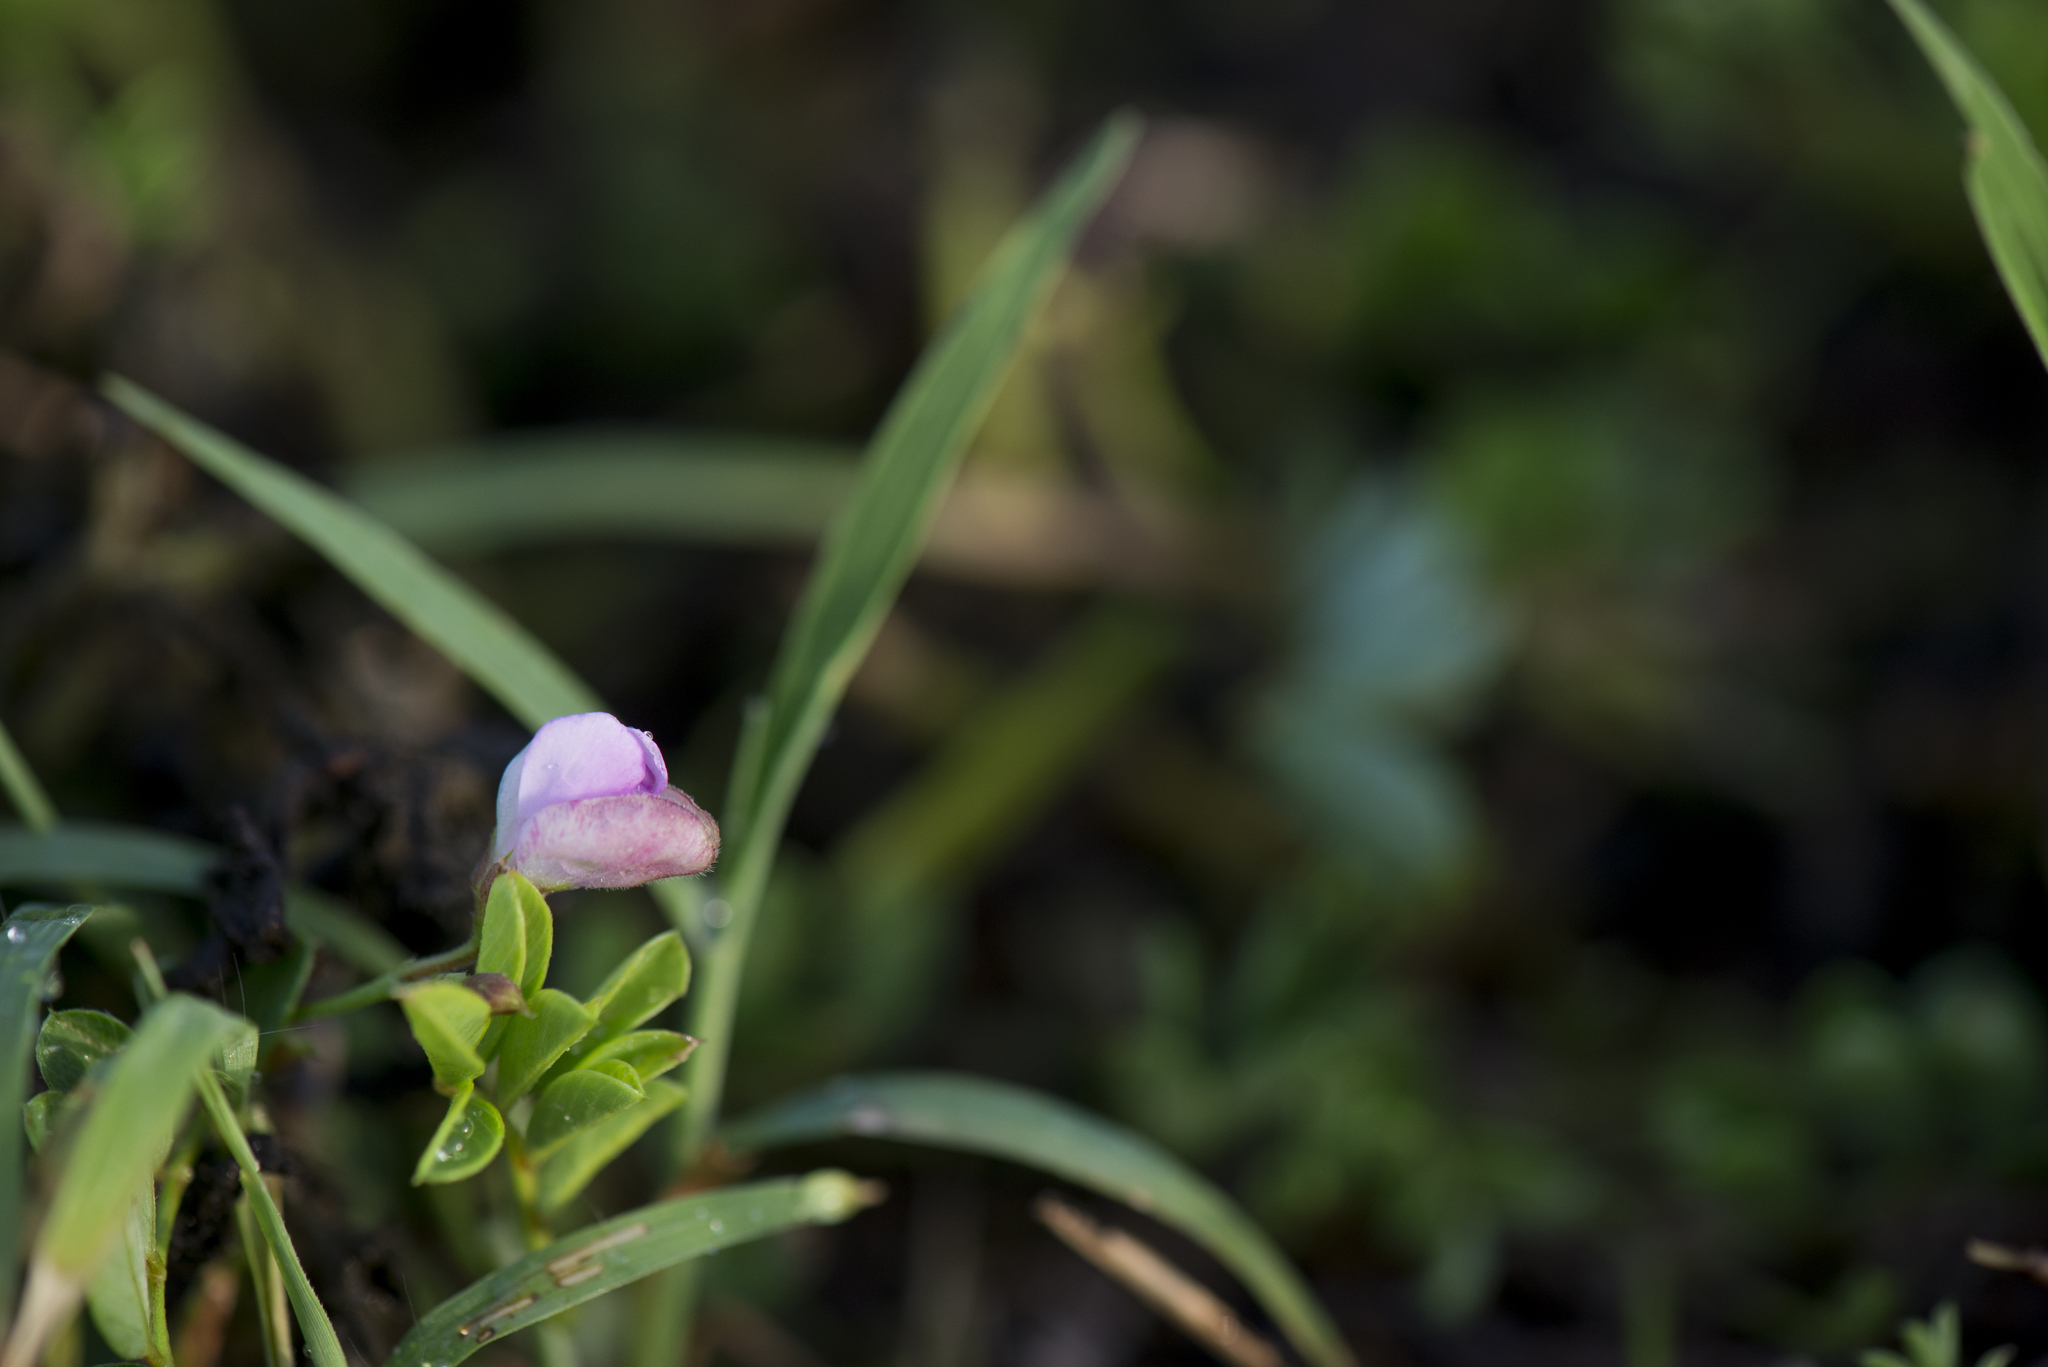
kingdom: Plantae
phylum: Tracheophyta
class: Magnoliopsida
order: Fabales
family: Fabaceae
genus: Tephrosia
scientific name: Tephrosia obovata
